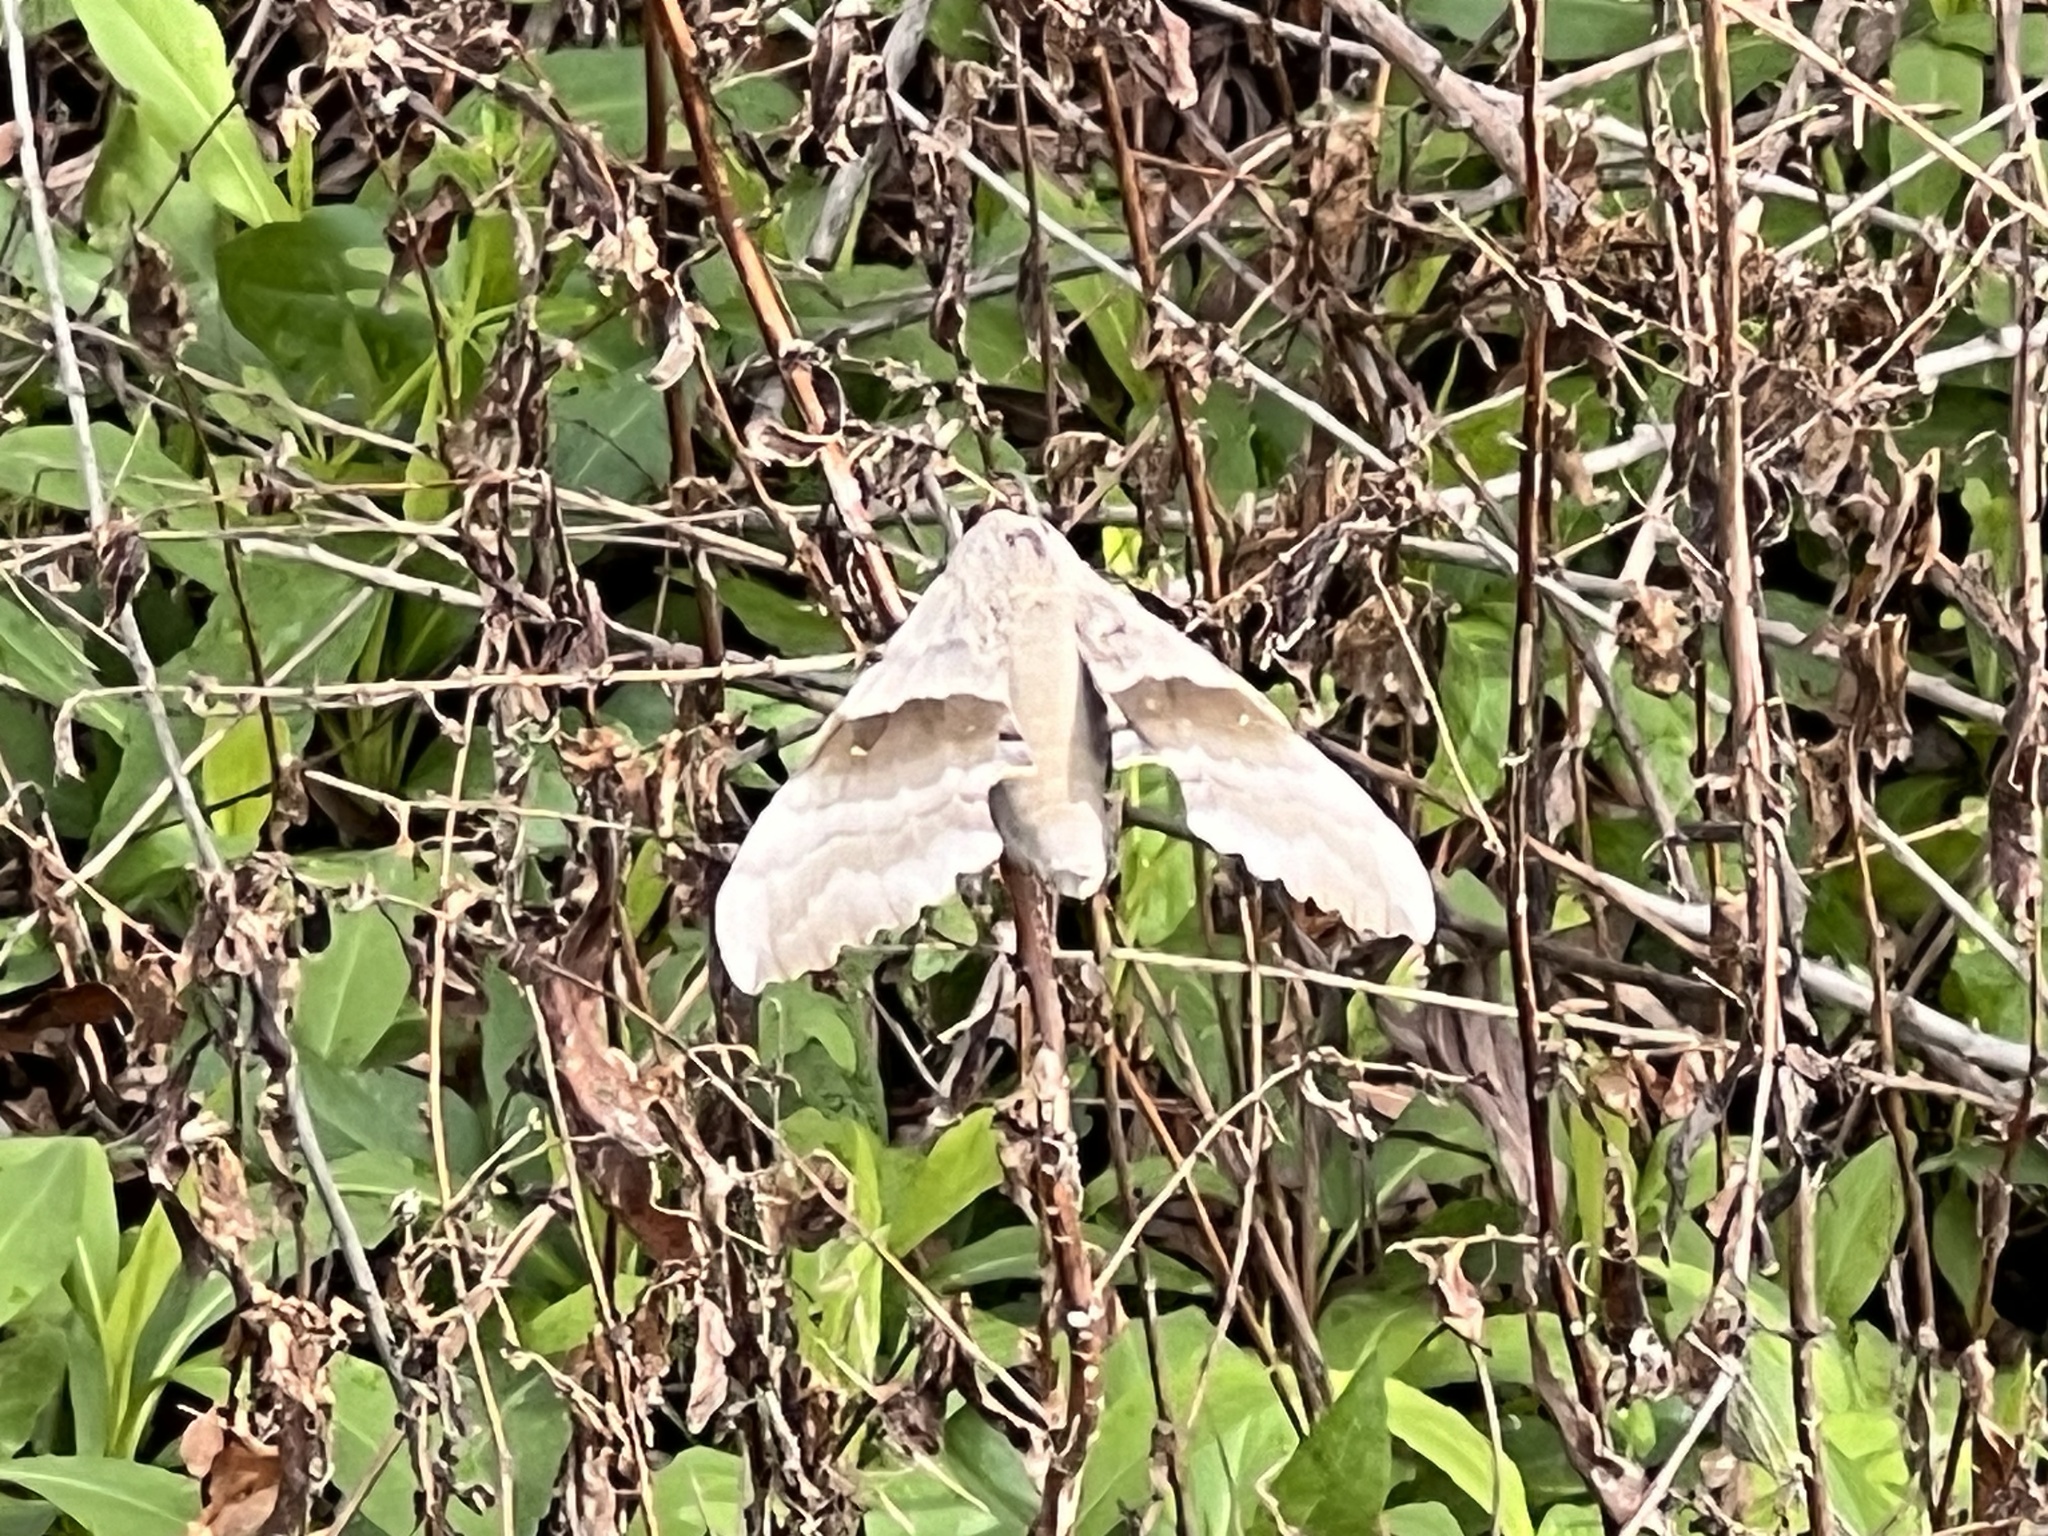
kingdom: Animalia
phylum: Arthropoda
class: Insecta
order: Lepidoptera
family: Sphingidae
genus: Pachysphinx
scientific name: Pachysphinx modesta
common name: Big poplar sphinx
